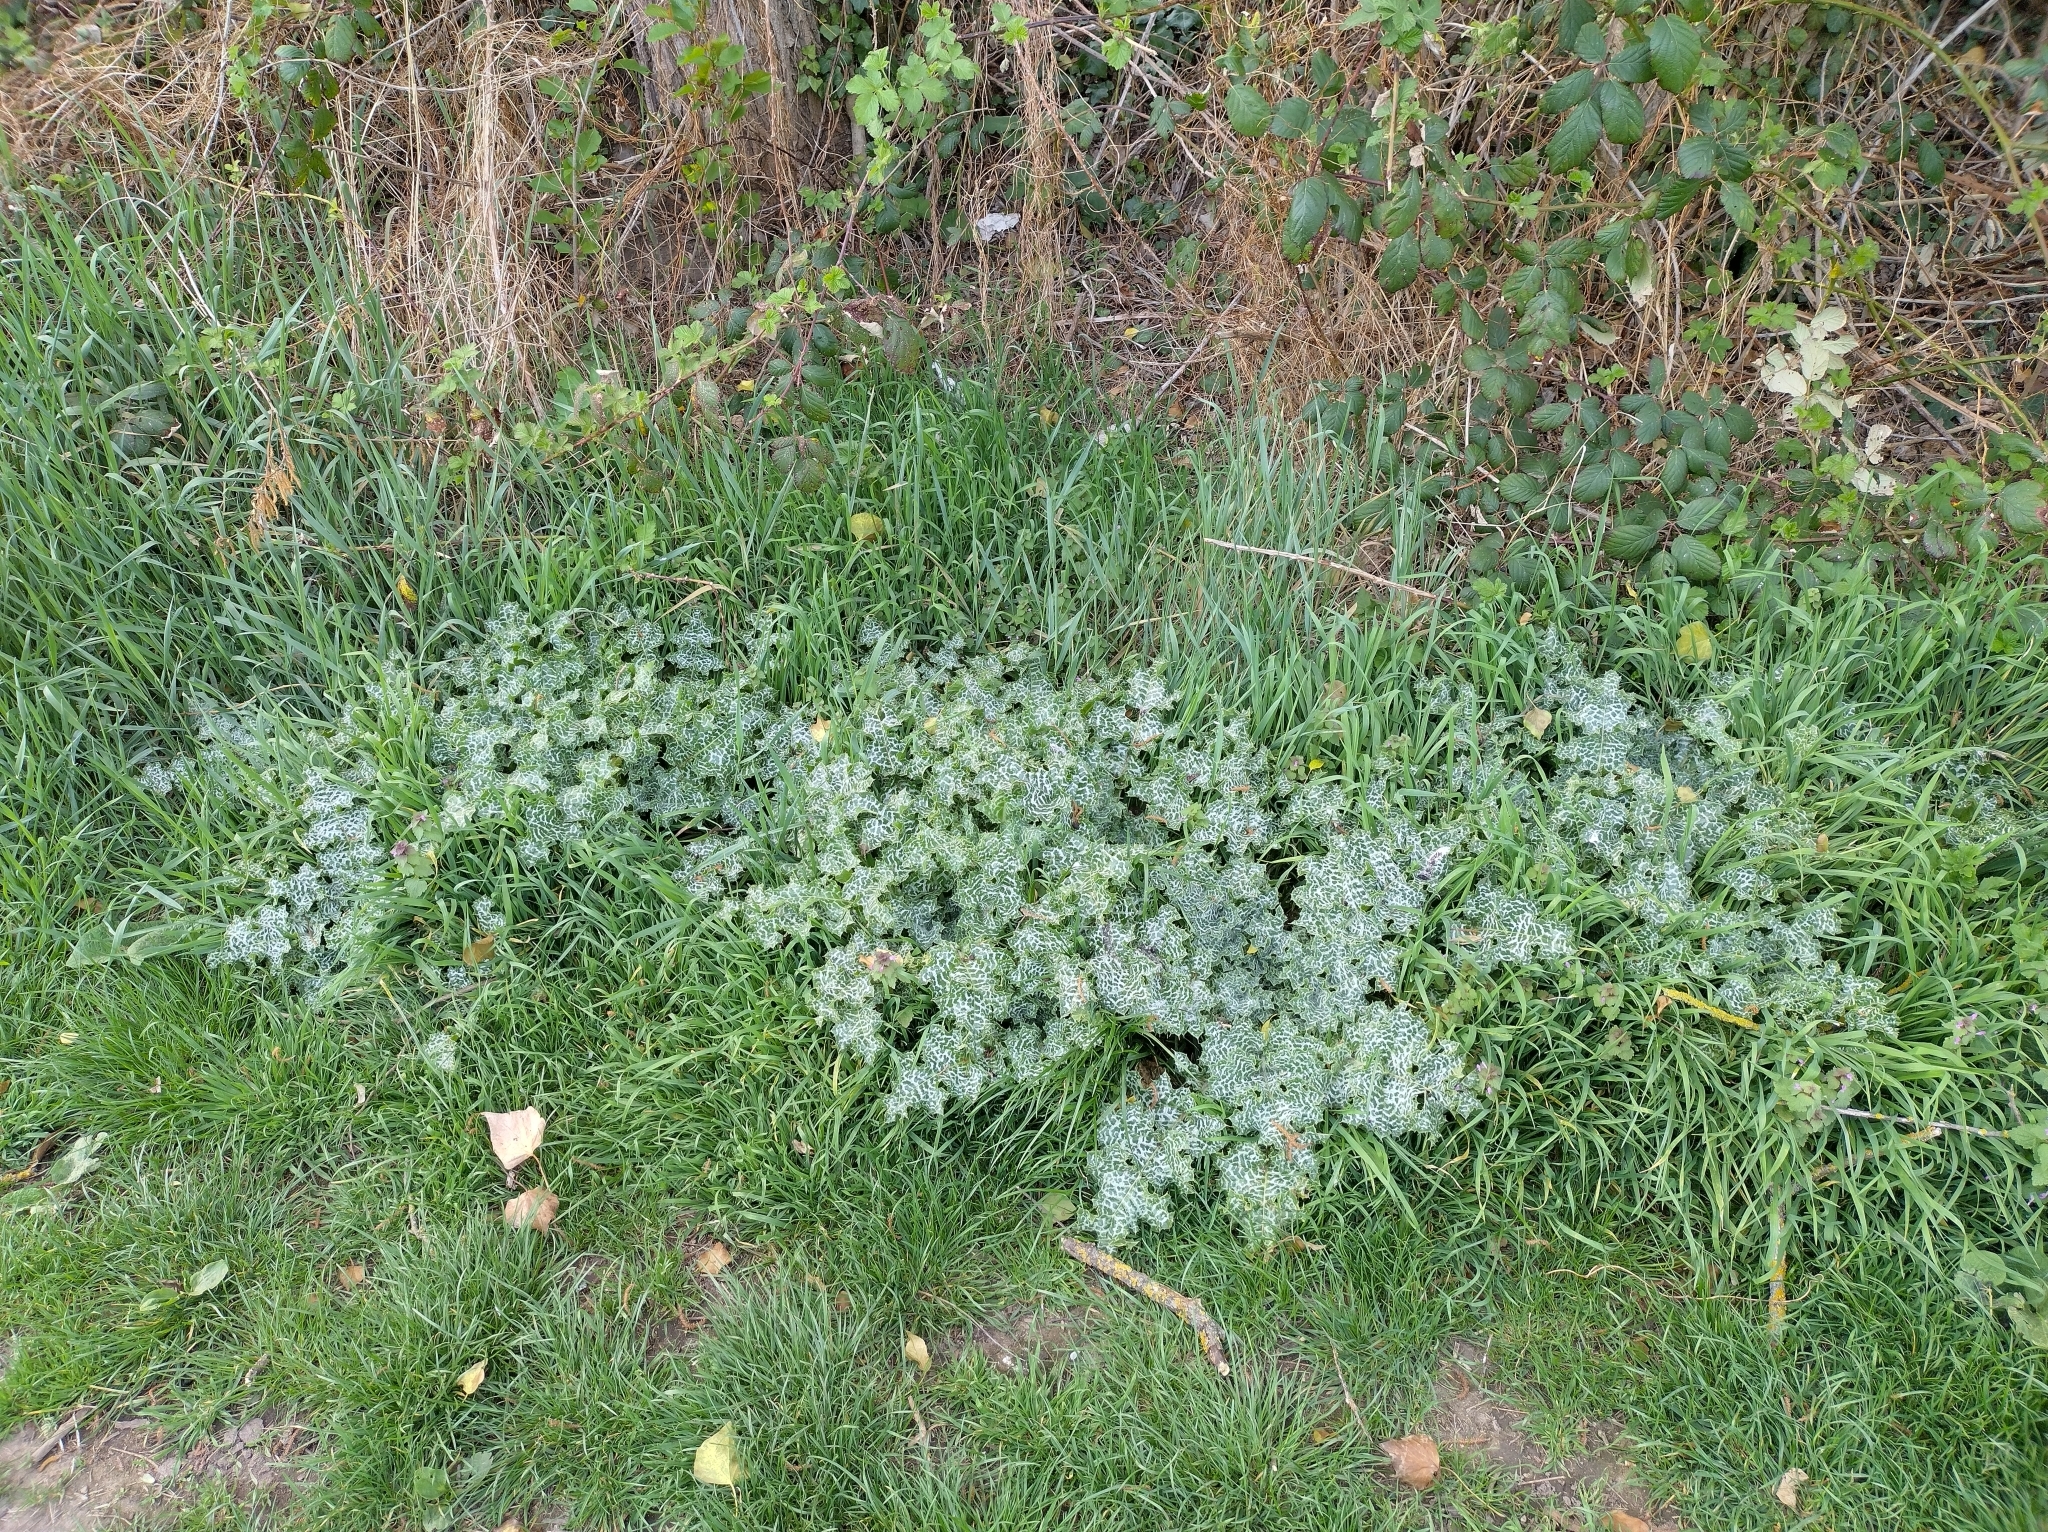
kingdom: Plantae
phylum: Tracheophyta
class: Magnoliopsida
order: Asterales
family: Asteraceae
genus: Silybum
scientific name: Silybum marianum
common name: Milk thistle
